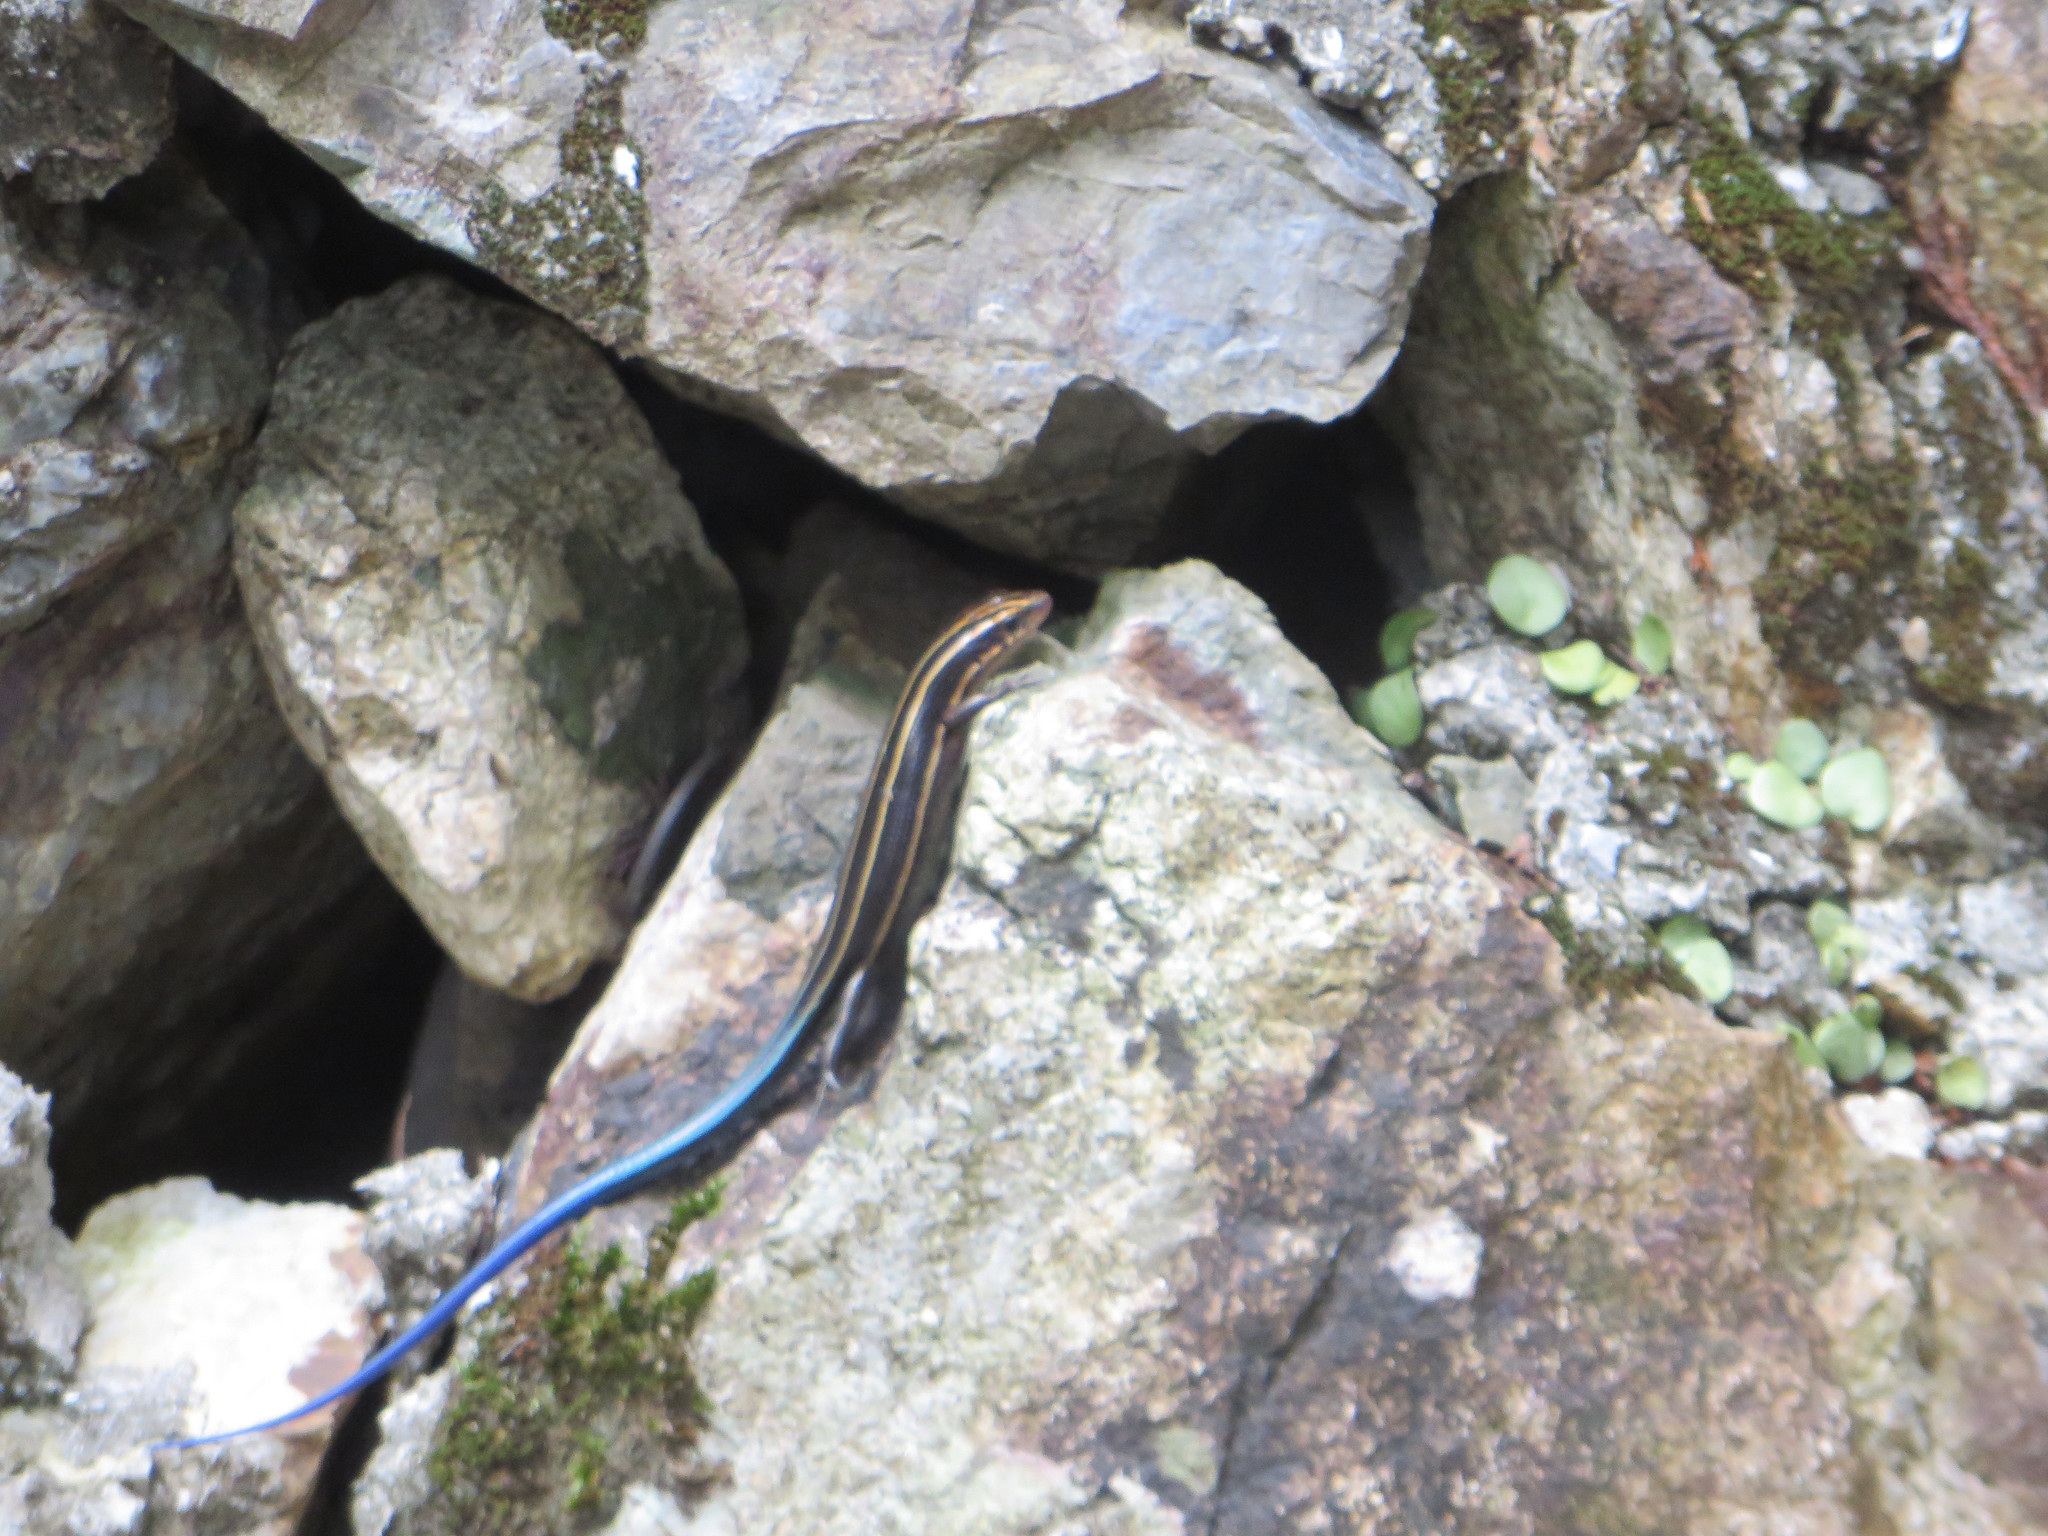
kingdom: Animalia
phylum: Chordata
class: Squamata
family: Scincidae
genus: Plestiodon
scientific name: Plestiodon japonicus
